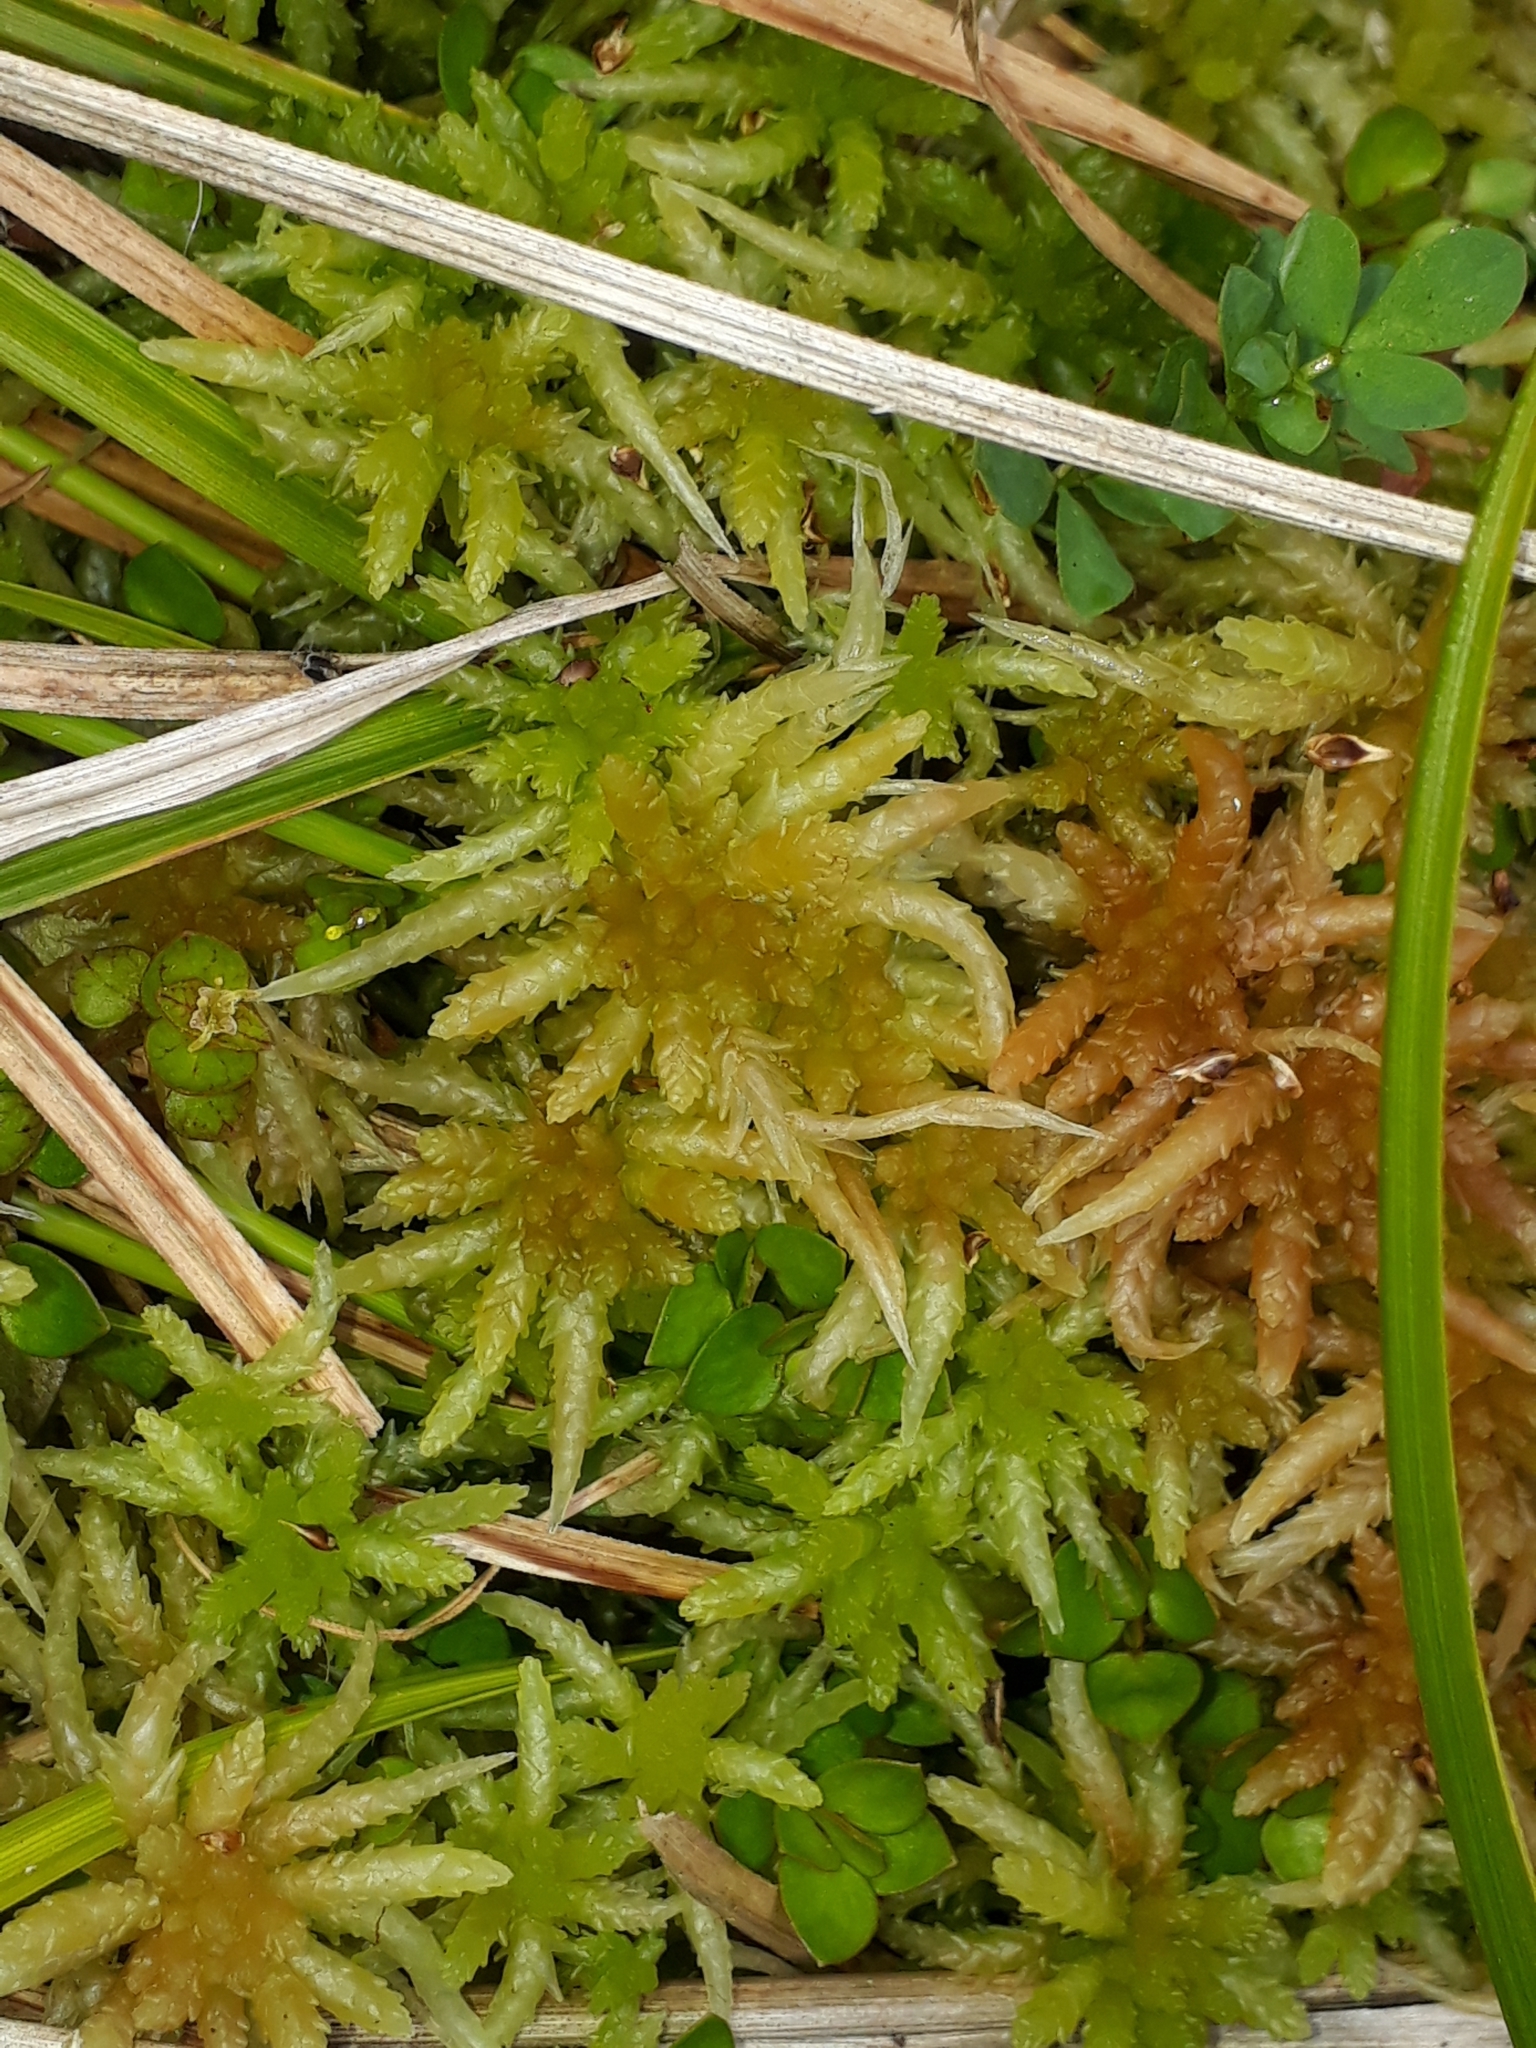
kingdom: Plantae
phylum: Bryophyta
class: Sphagnopsida
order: Sphagnales
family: Sphagnaceae
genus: Sphagnum
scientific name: Sphagnum cristatum
